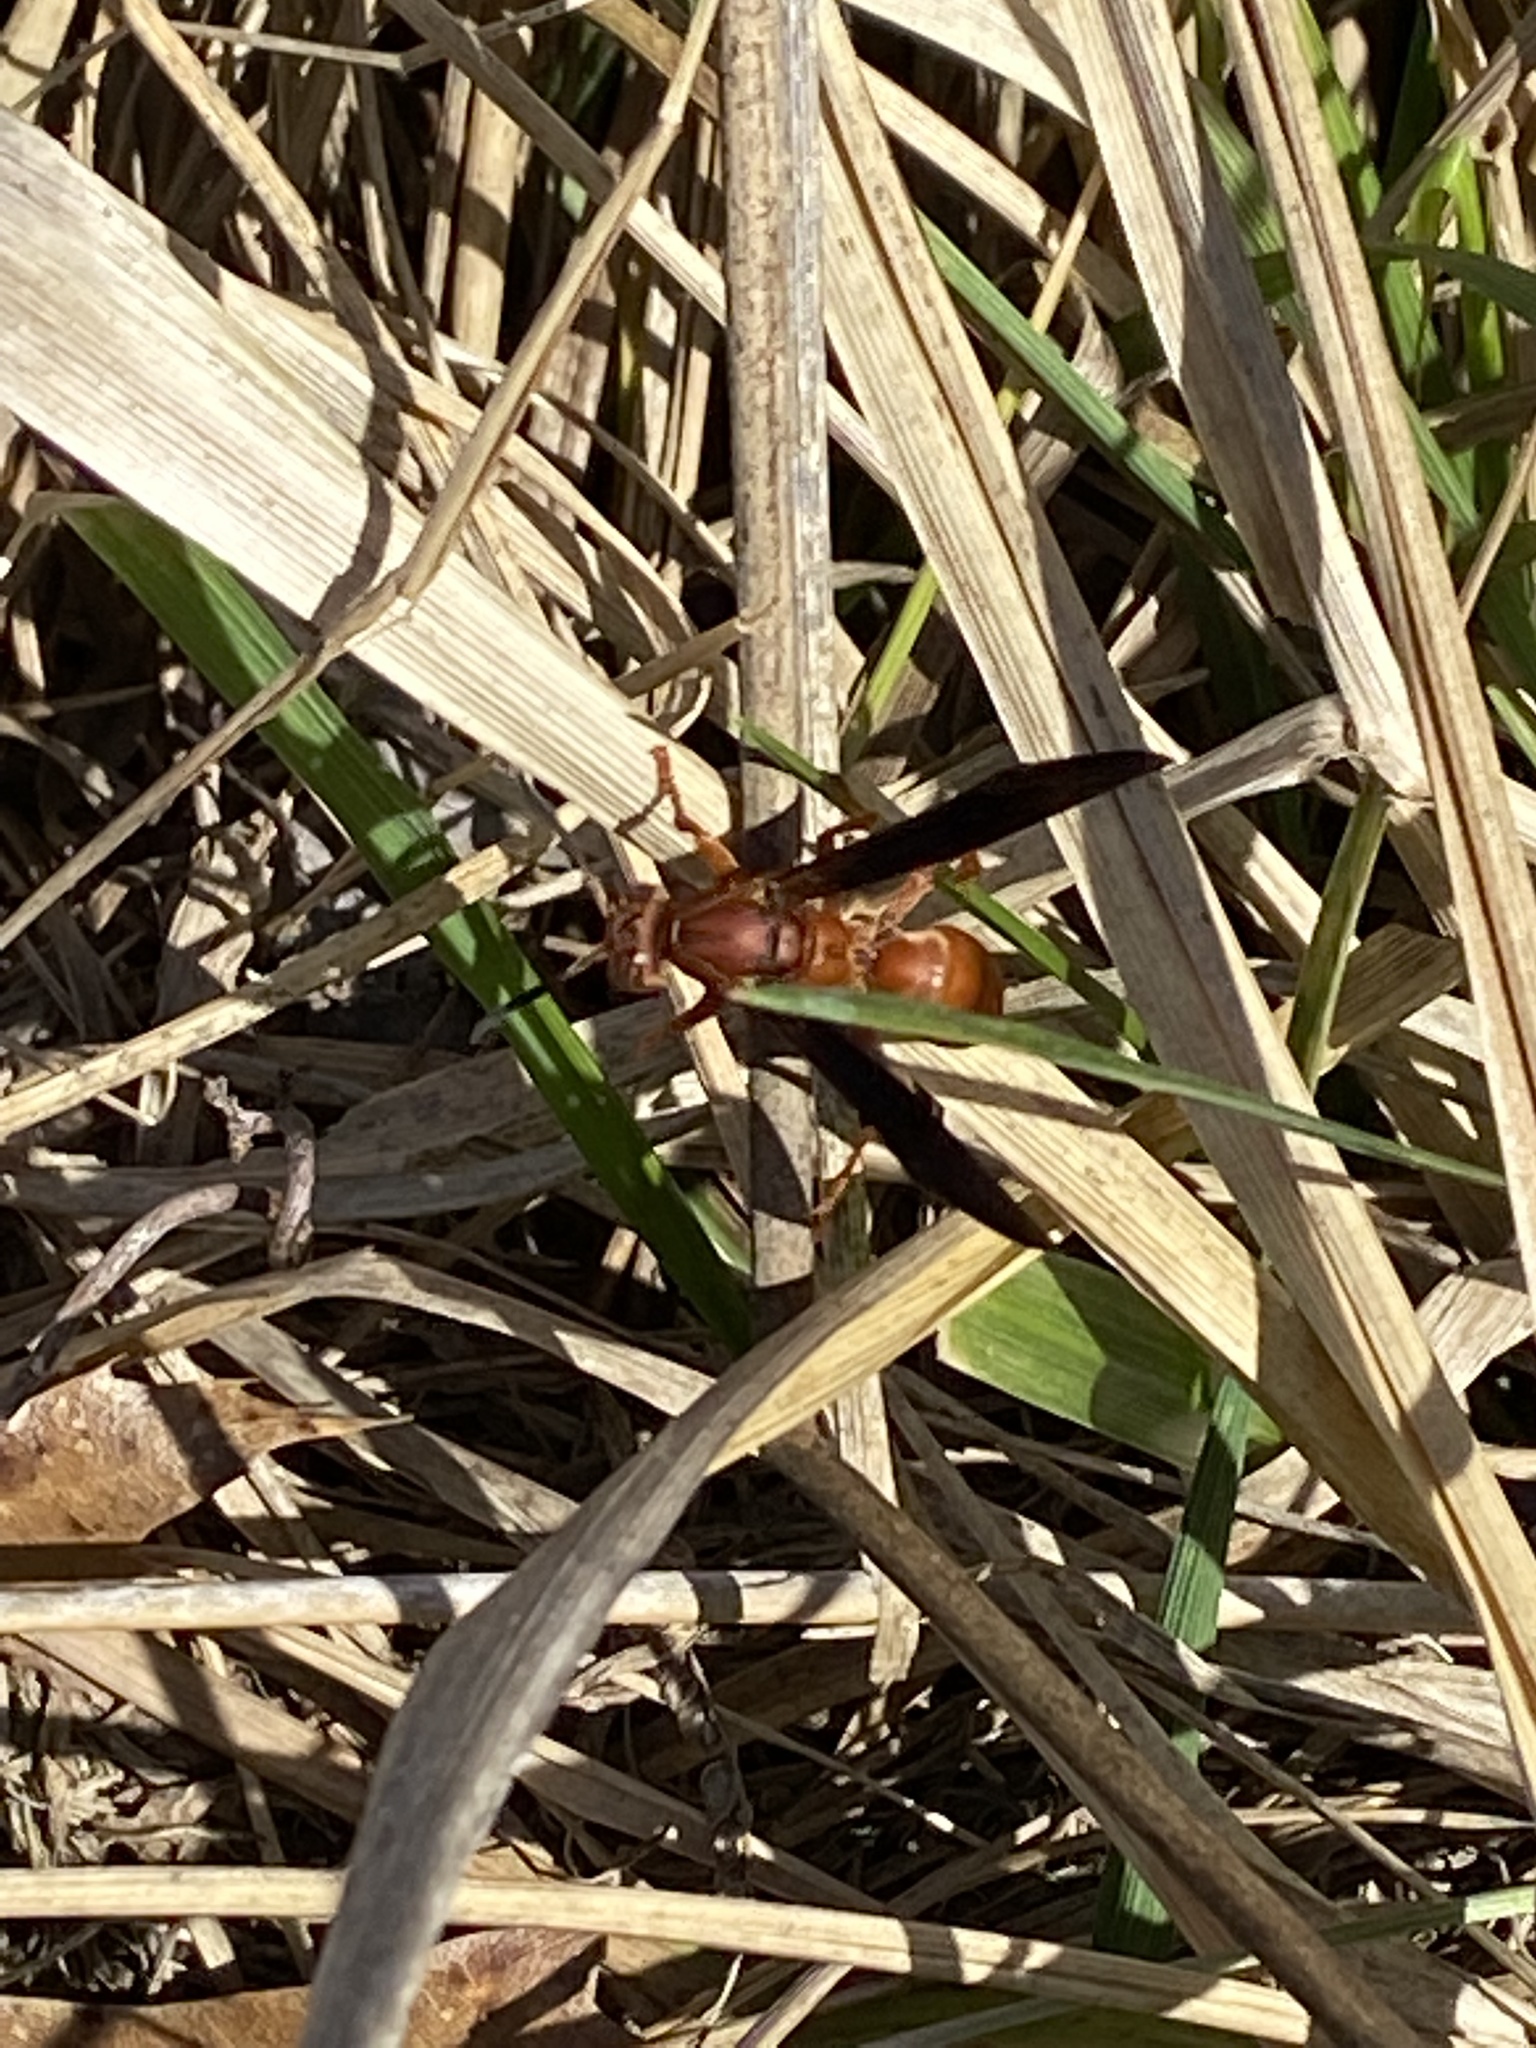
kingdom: Animalia
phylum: Arthropoda
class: Insecta
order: Hymenoptera
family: Vespidae
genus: Fuscopolistes
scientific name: Fuscopolistes
